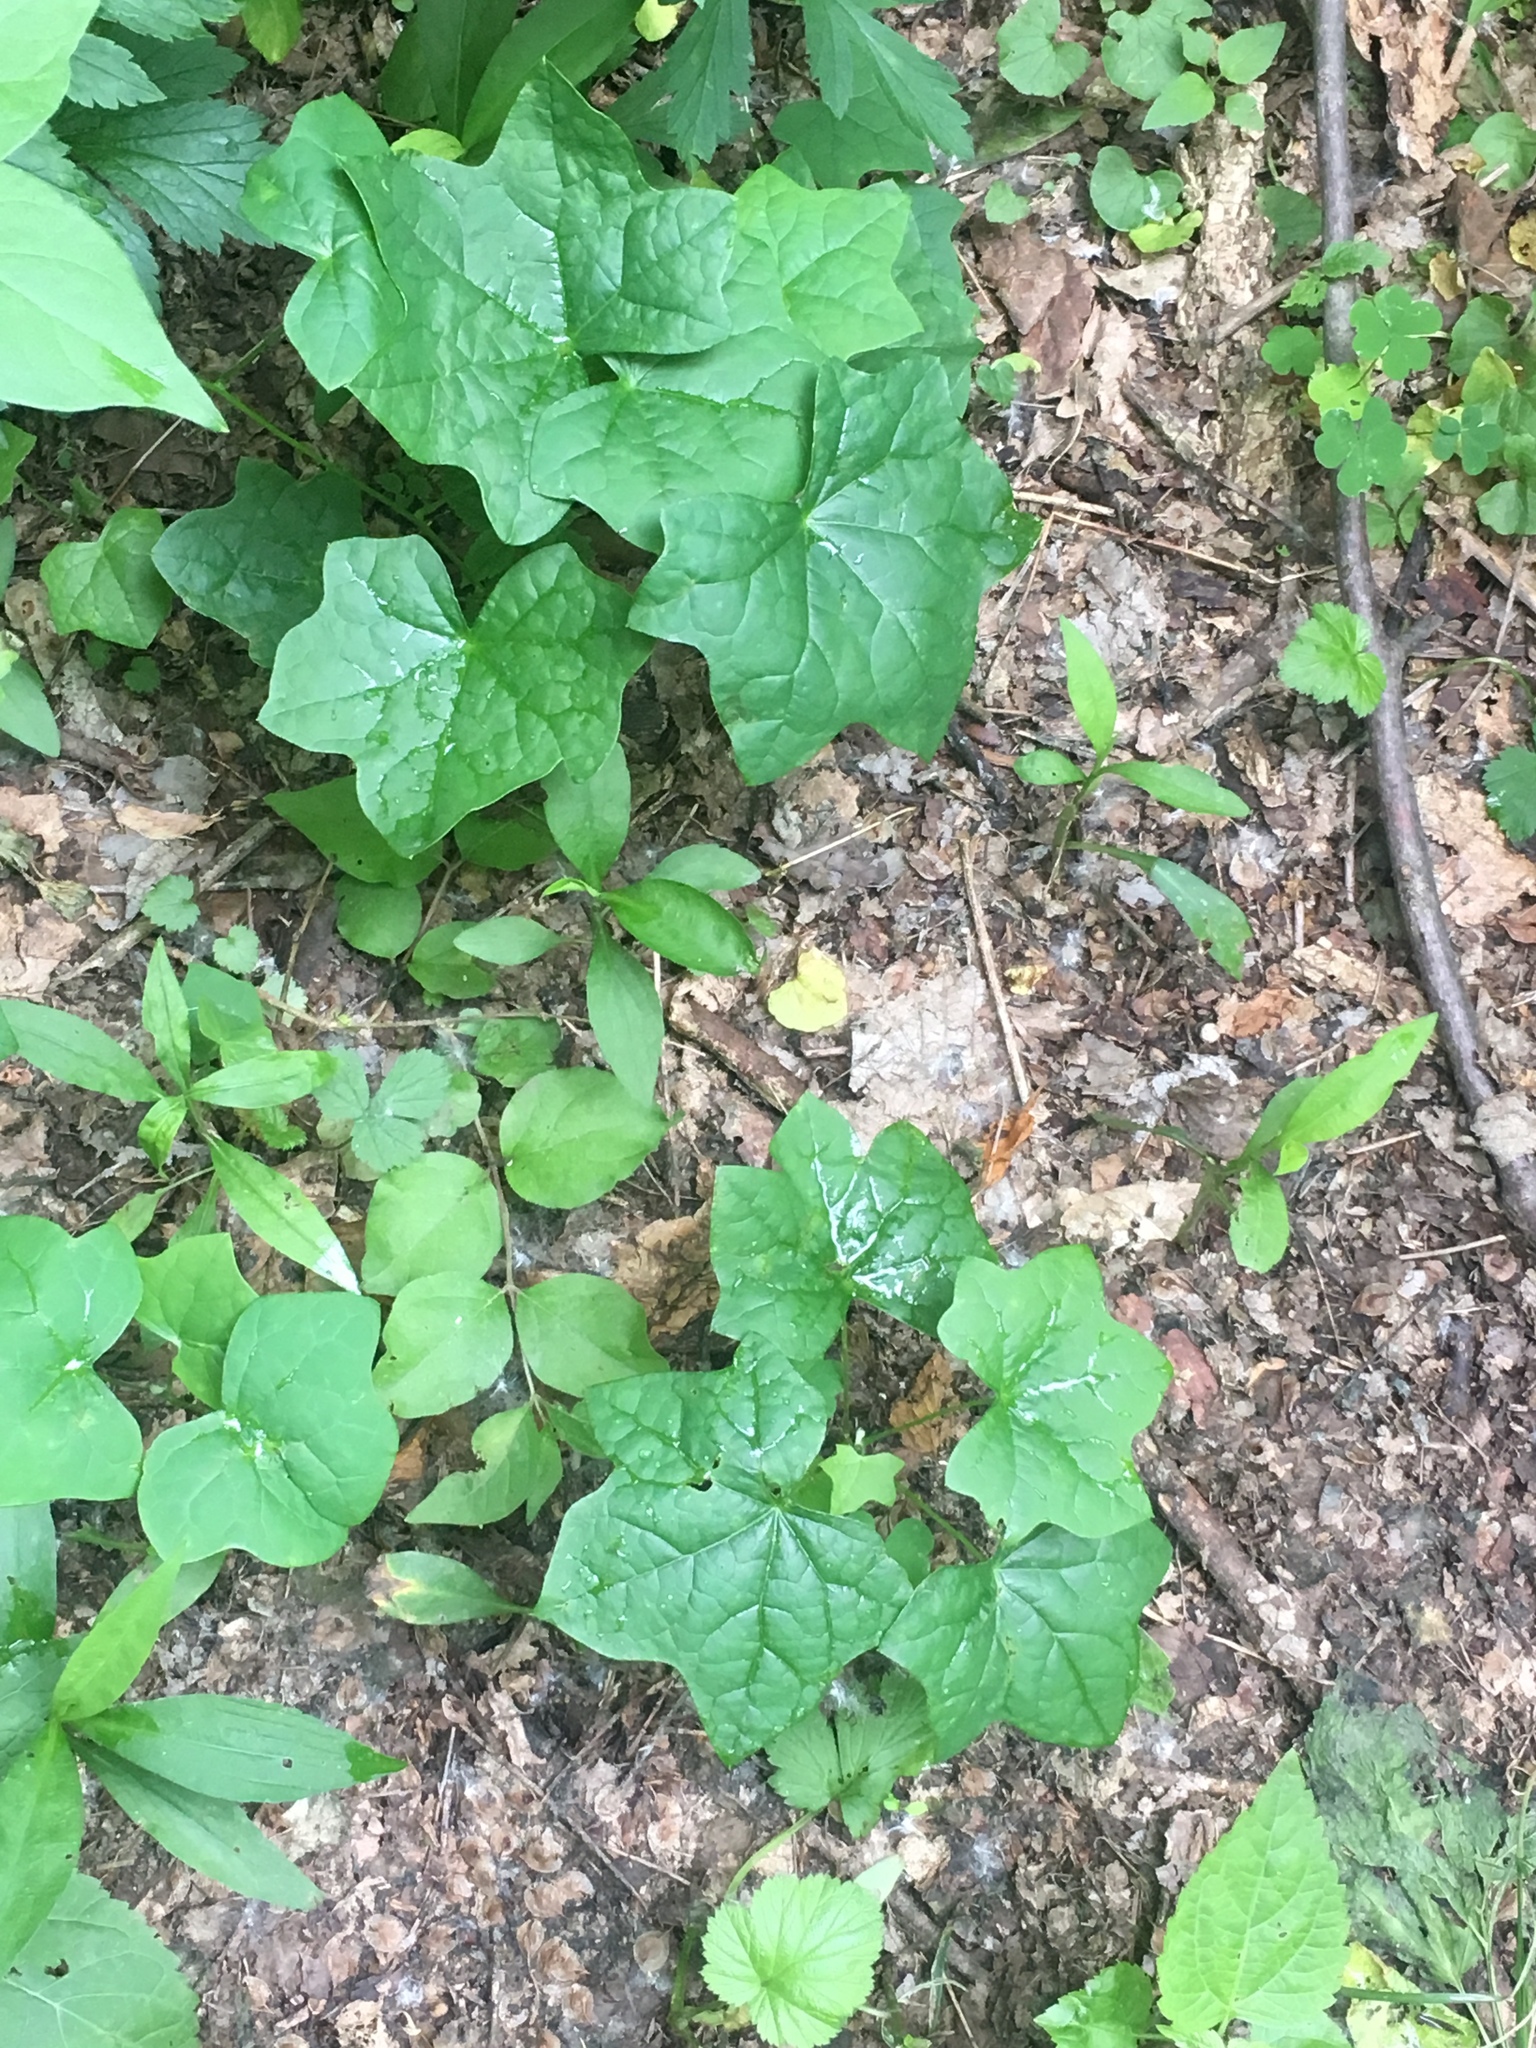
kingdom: Plantae
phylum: Tracheophyta
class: Magnoliopsida
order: Ranunculales
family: Menispermaceae
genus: Menispermum
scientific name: Menispermum canadense
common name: Moonseed
